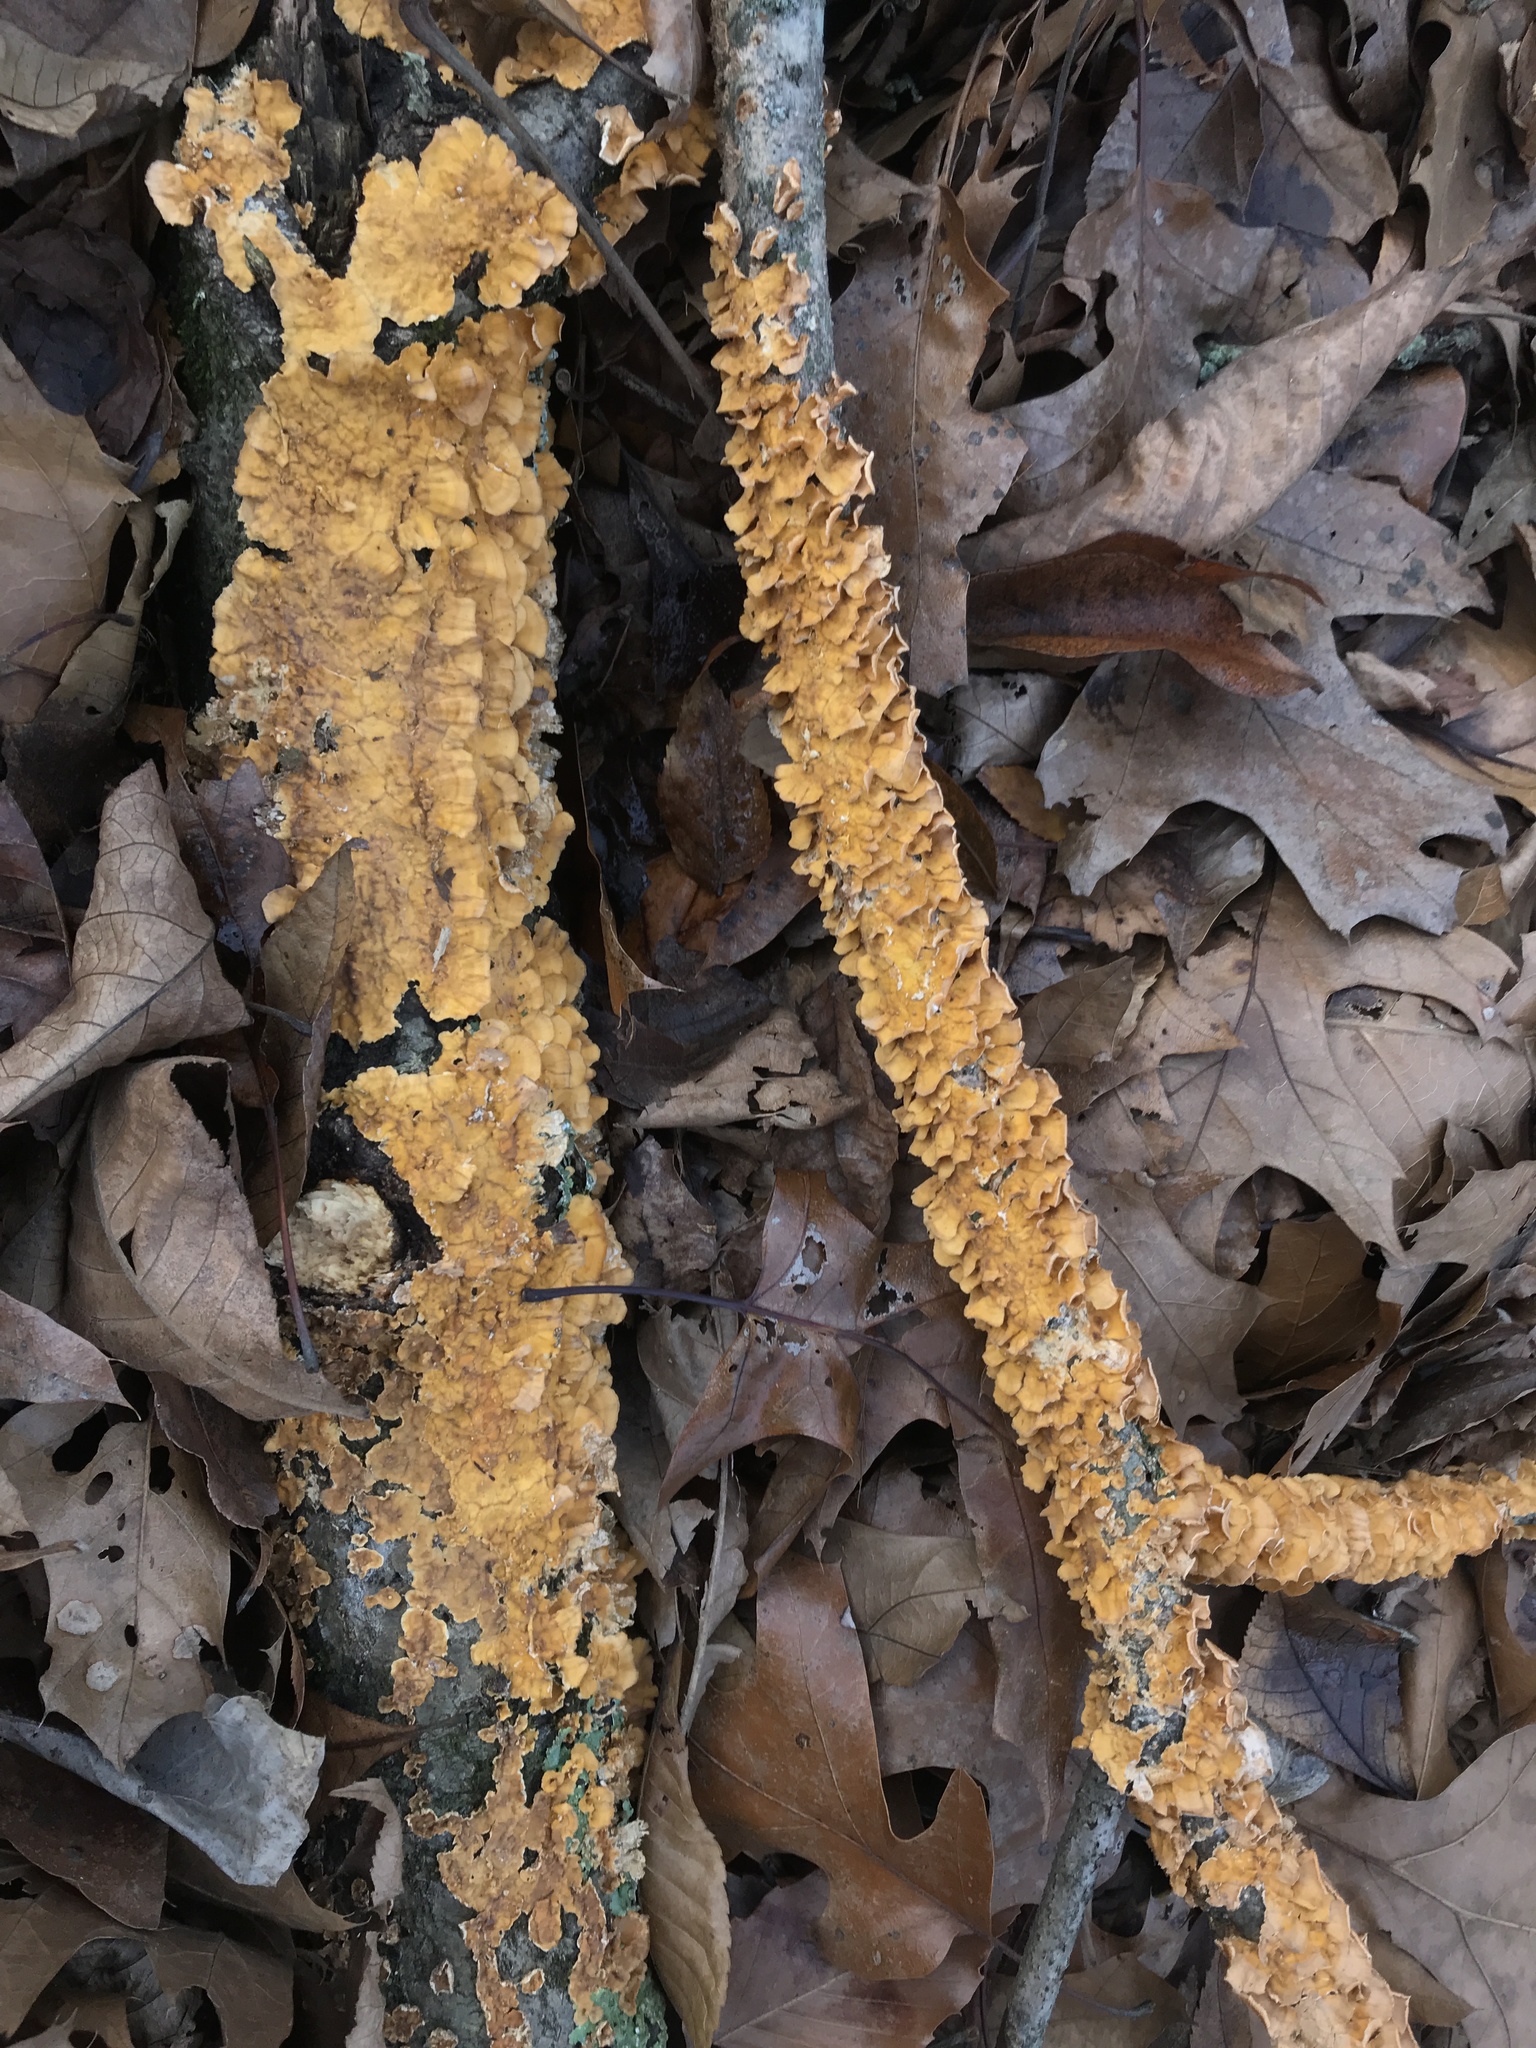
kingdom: Fungi
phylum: Basidiomycota
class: Agaricomycetes
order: Russulales
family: Stereaceae
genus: Stereum
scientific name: Stereum complicatum
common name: Crowded parchment
